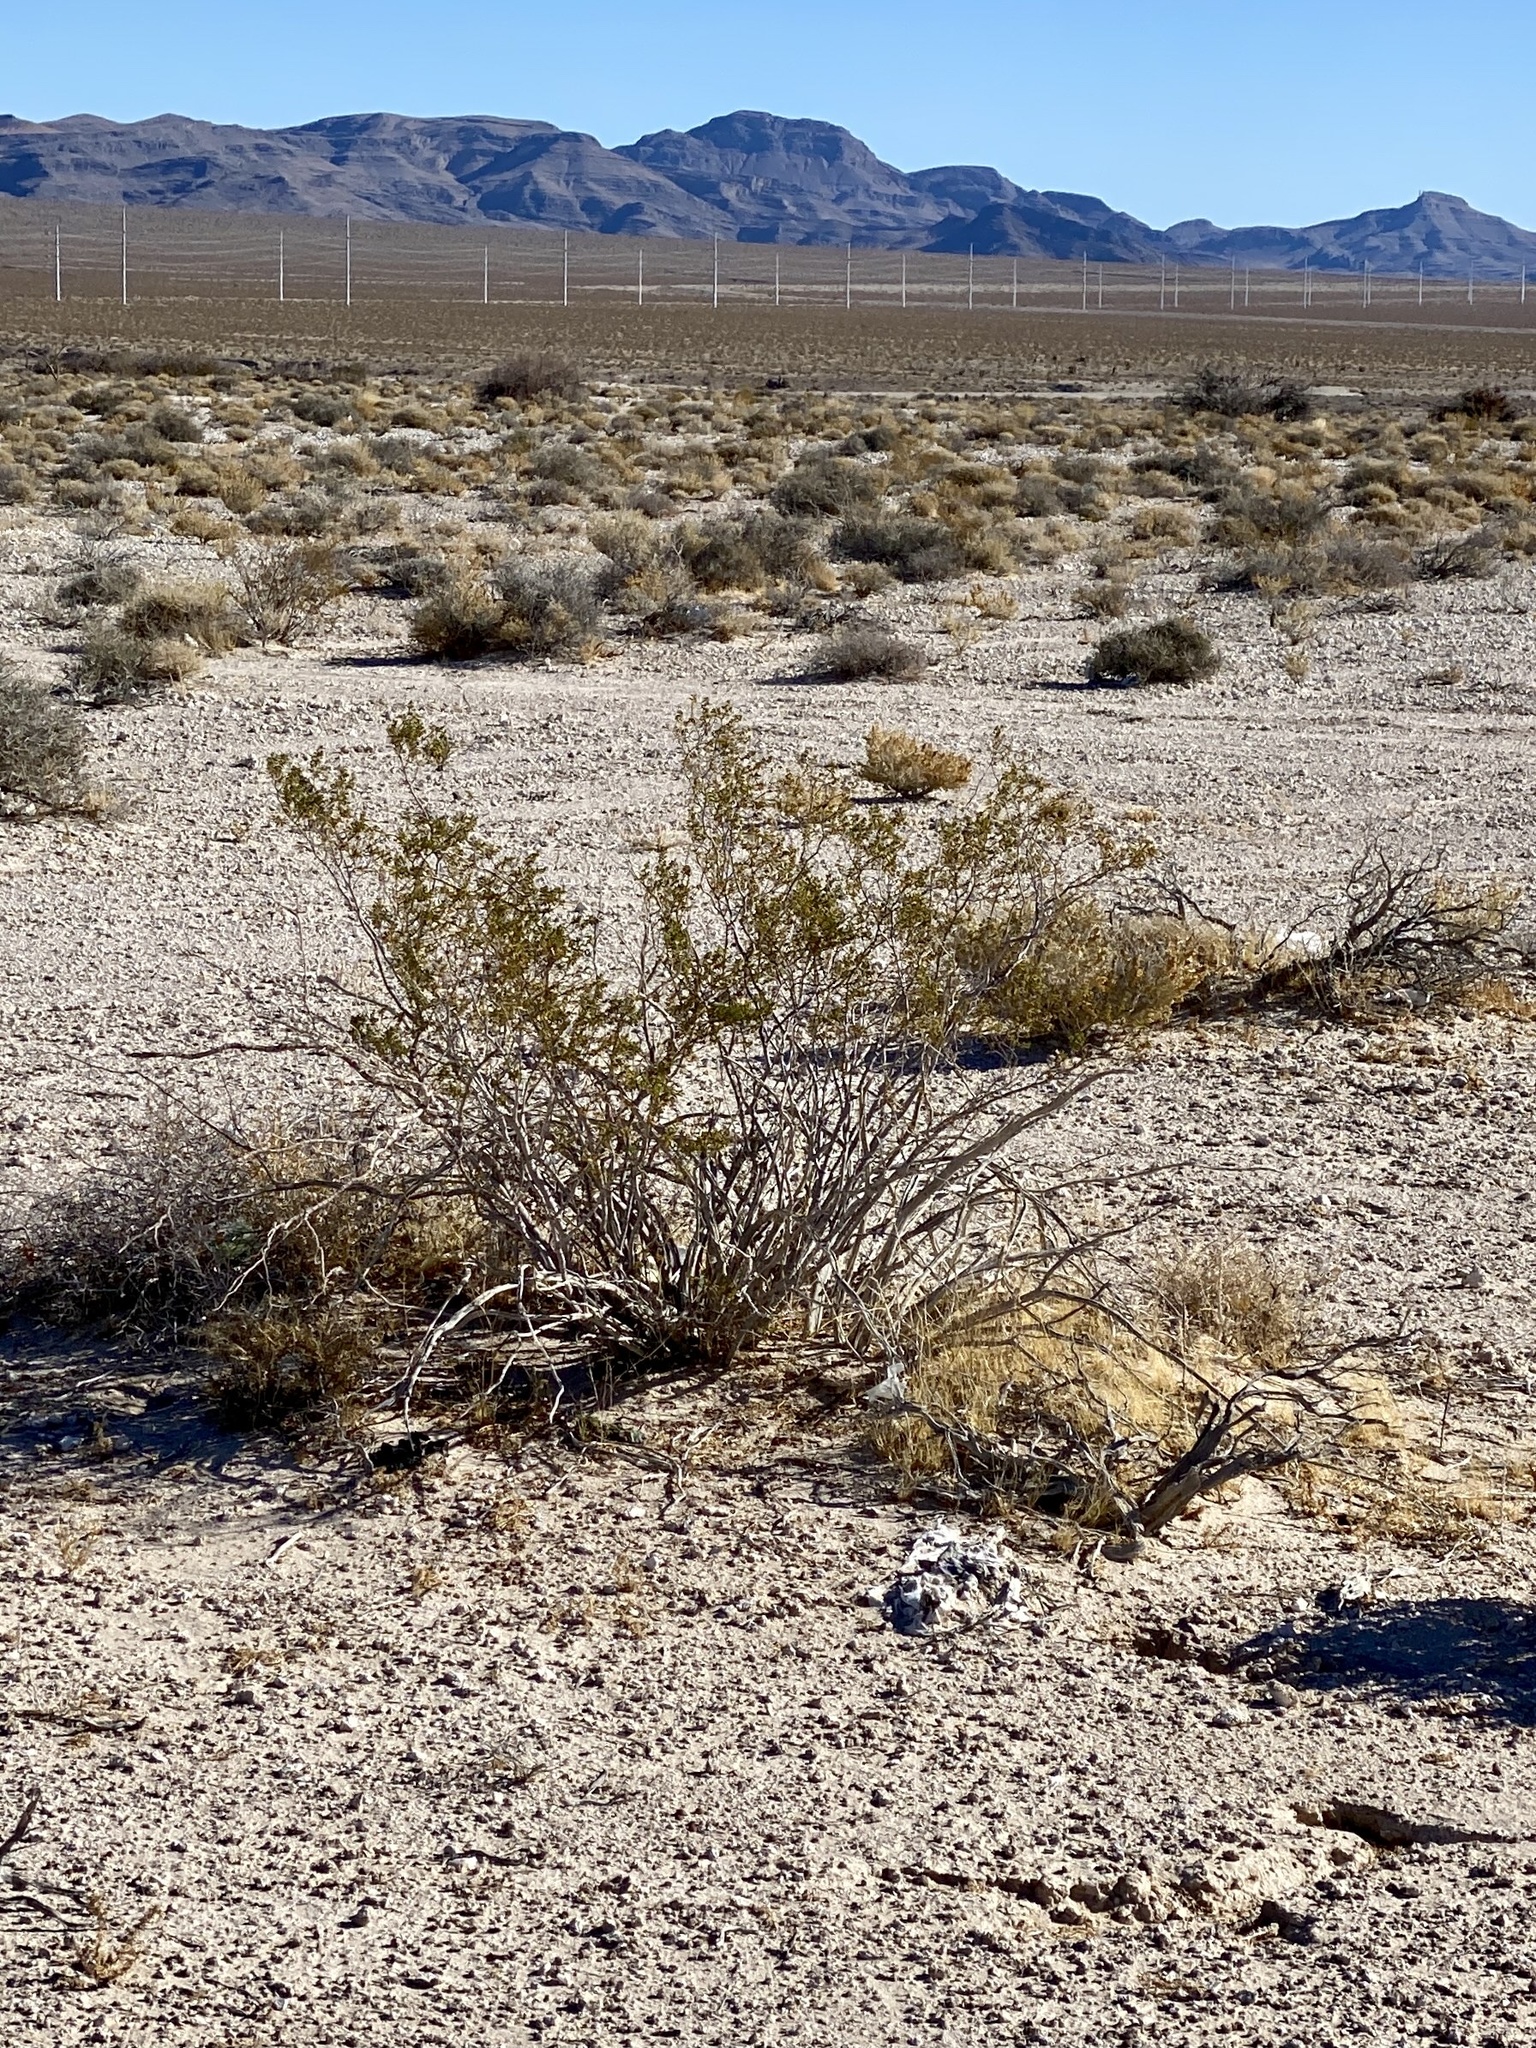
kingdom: Plantae
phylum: Tracheophyta
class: Magnoliopsida
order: Zygophyllales
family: Zygophyllaceae
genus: Larrea
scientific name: Larrea tridentata
